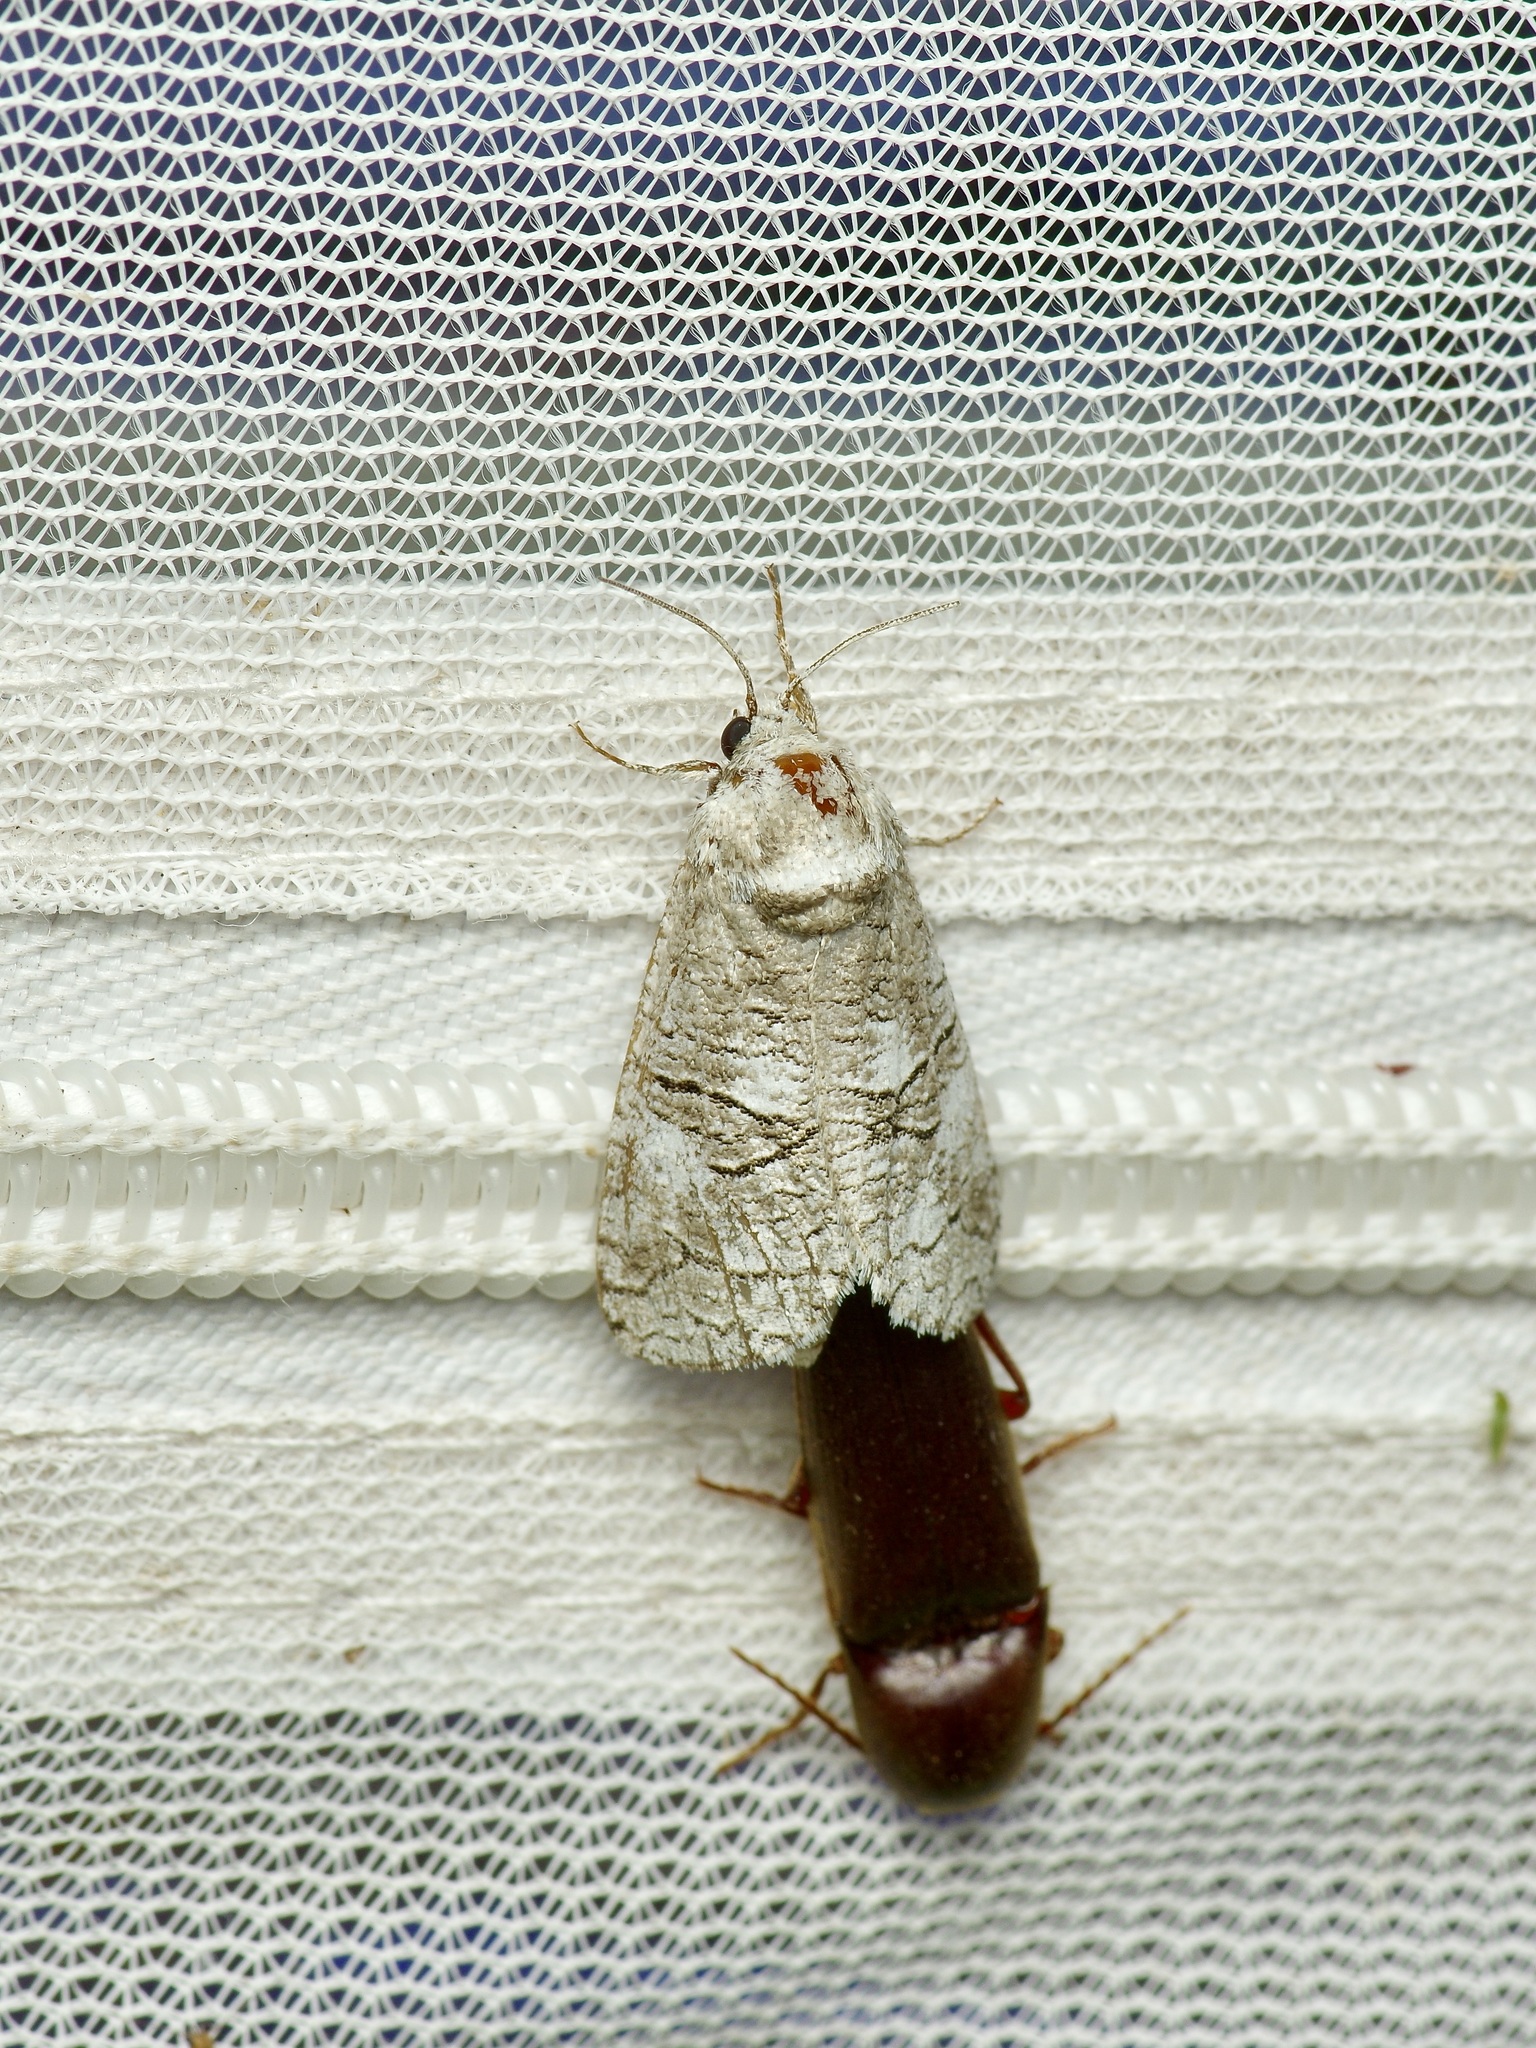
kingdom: Animalia
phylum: Arthropoda
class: Insecta
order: Lepidoptera
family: Cossidae
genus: Fania
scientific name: Fania nanus
